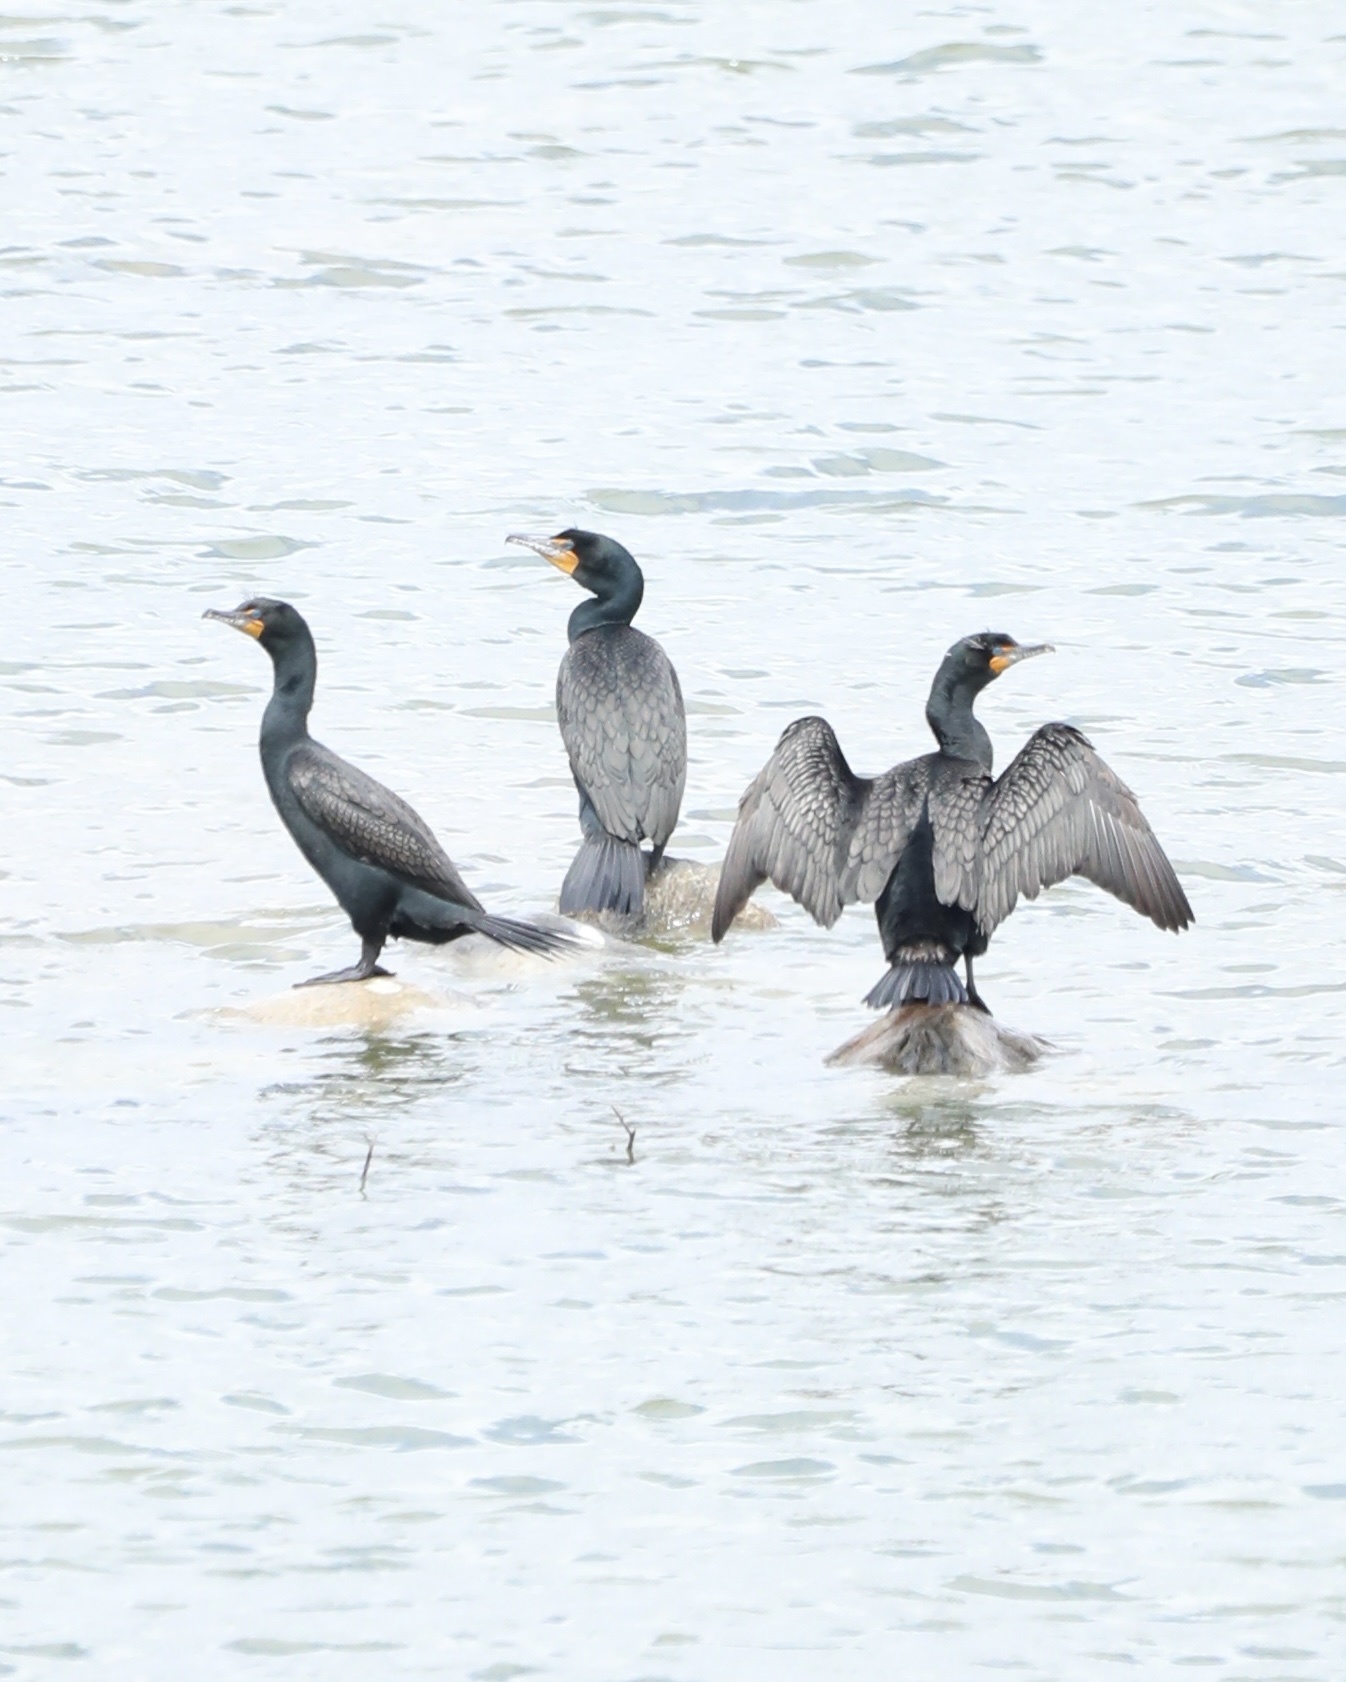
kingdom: Animalia
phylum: Chordata
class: Aves
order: Suliformes
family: Phalacrocoracidae
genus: Phalacrocorax
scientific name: Phalacrocorax auritus
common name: Double-crested cormorant
